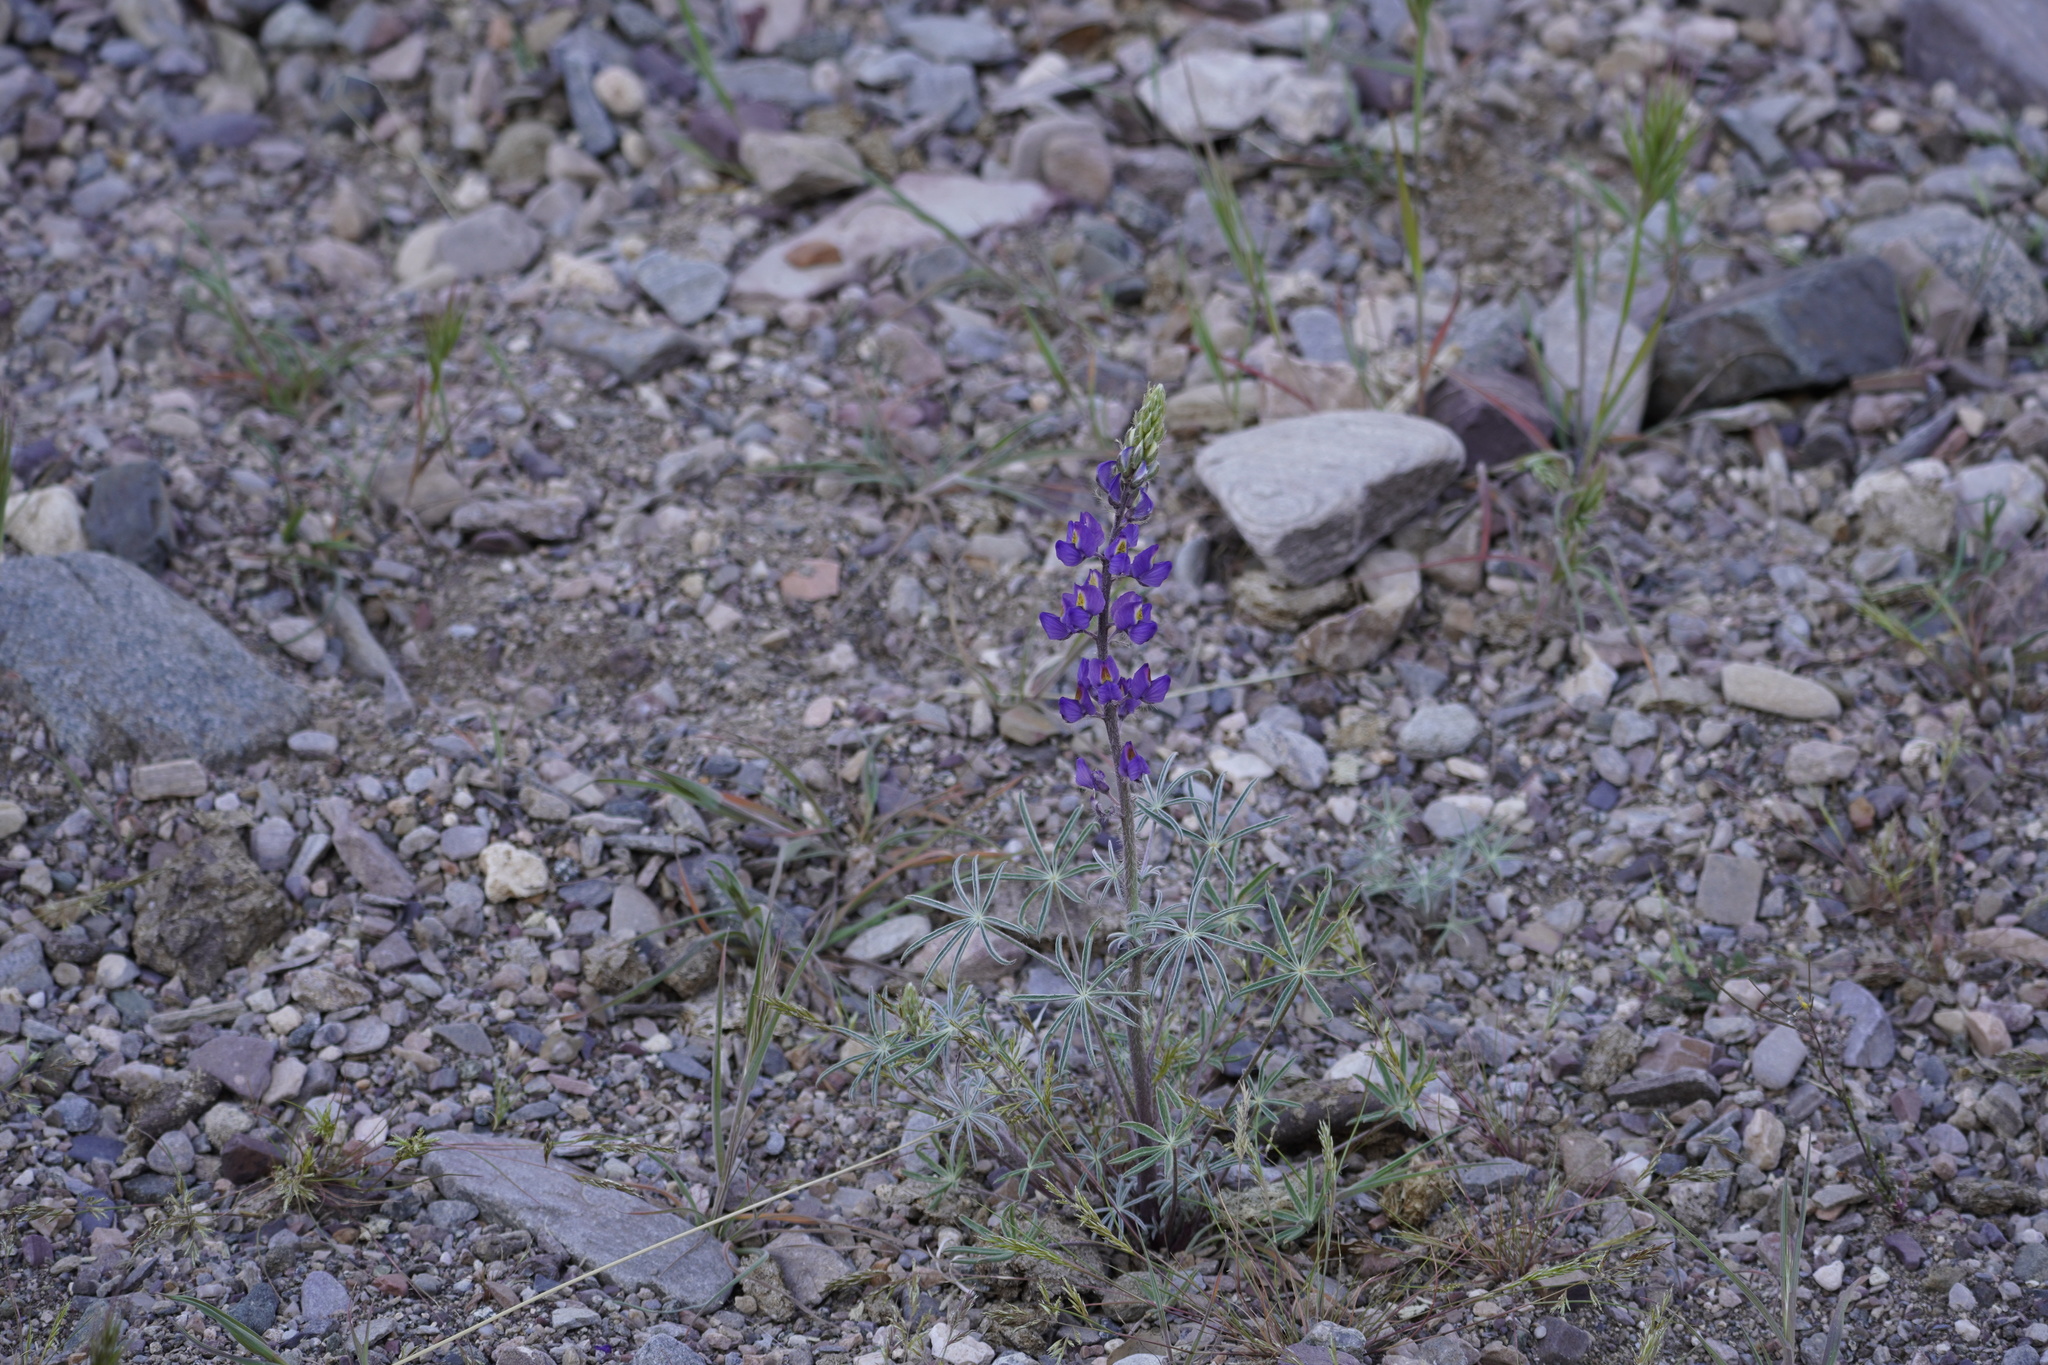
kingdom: Plantae
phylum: Tracheophyta
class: Magnoliopsida
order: Fabales
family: Fabaceae
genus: Lupinus
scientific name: Lupinus sparsiflorus
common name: Coulter's lupine
